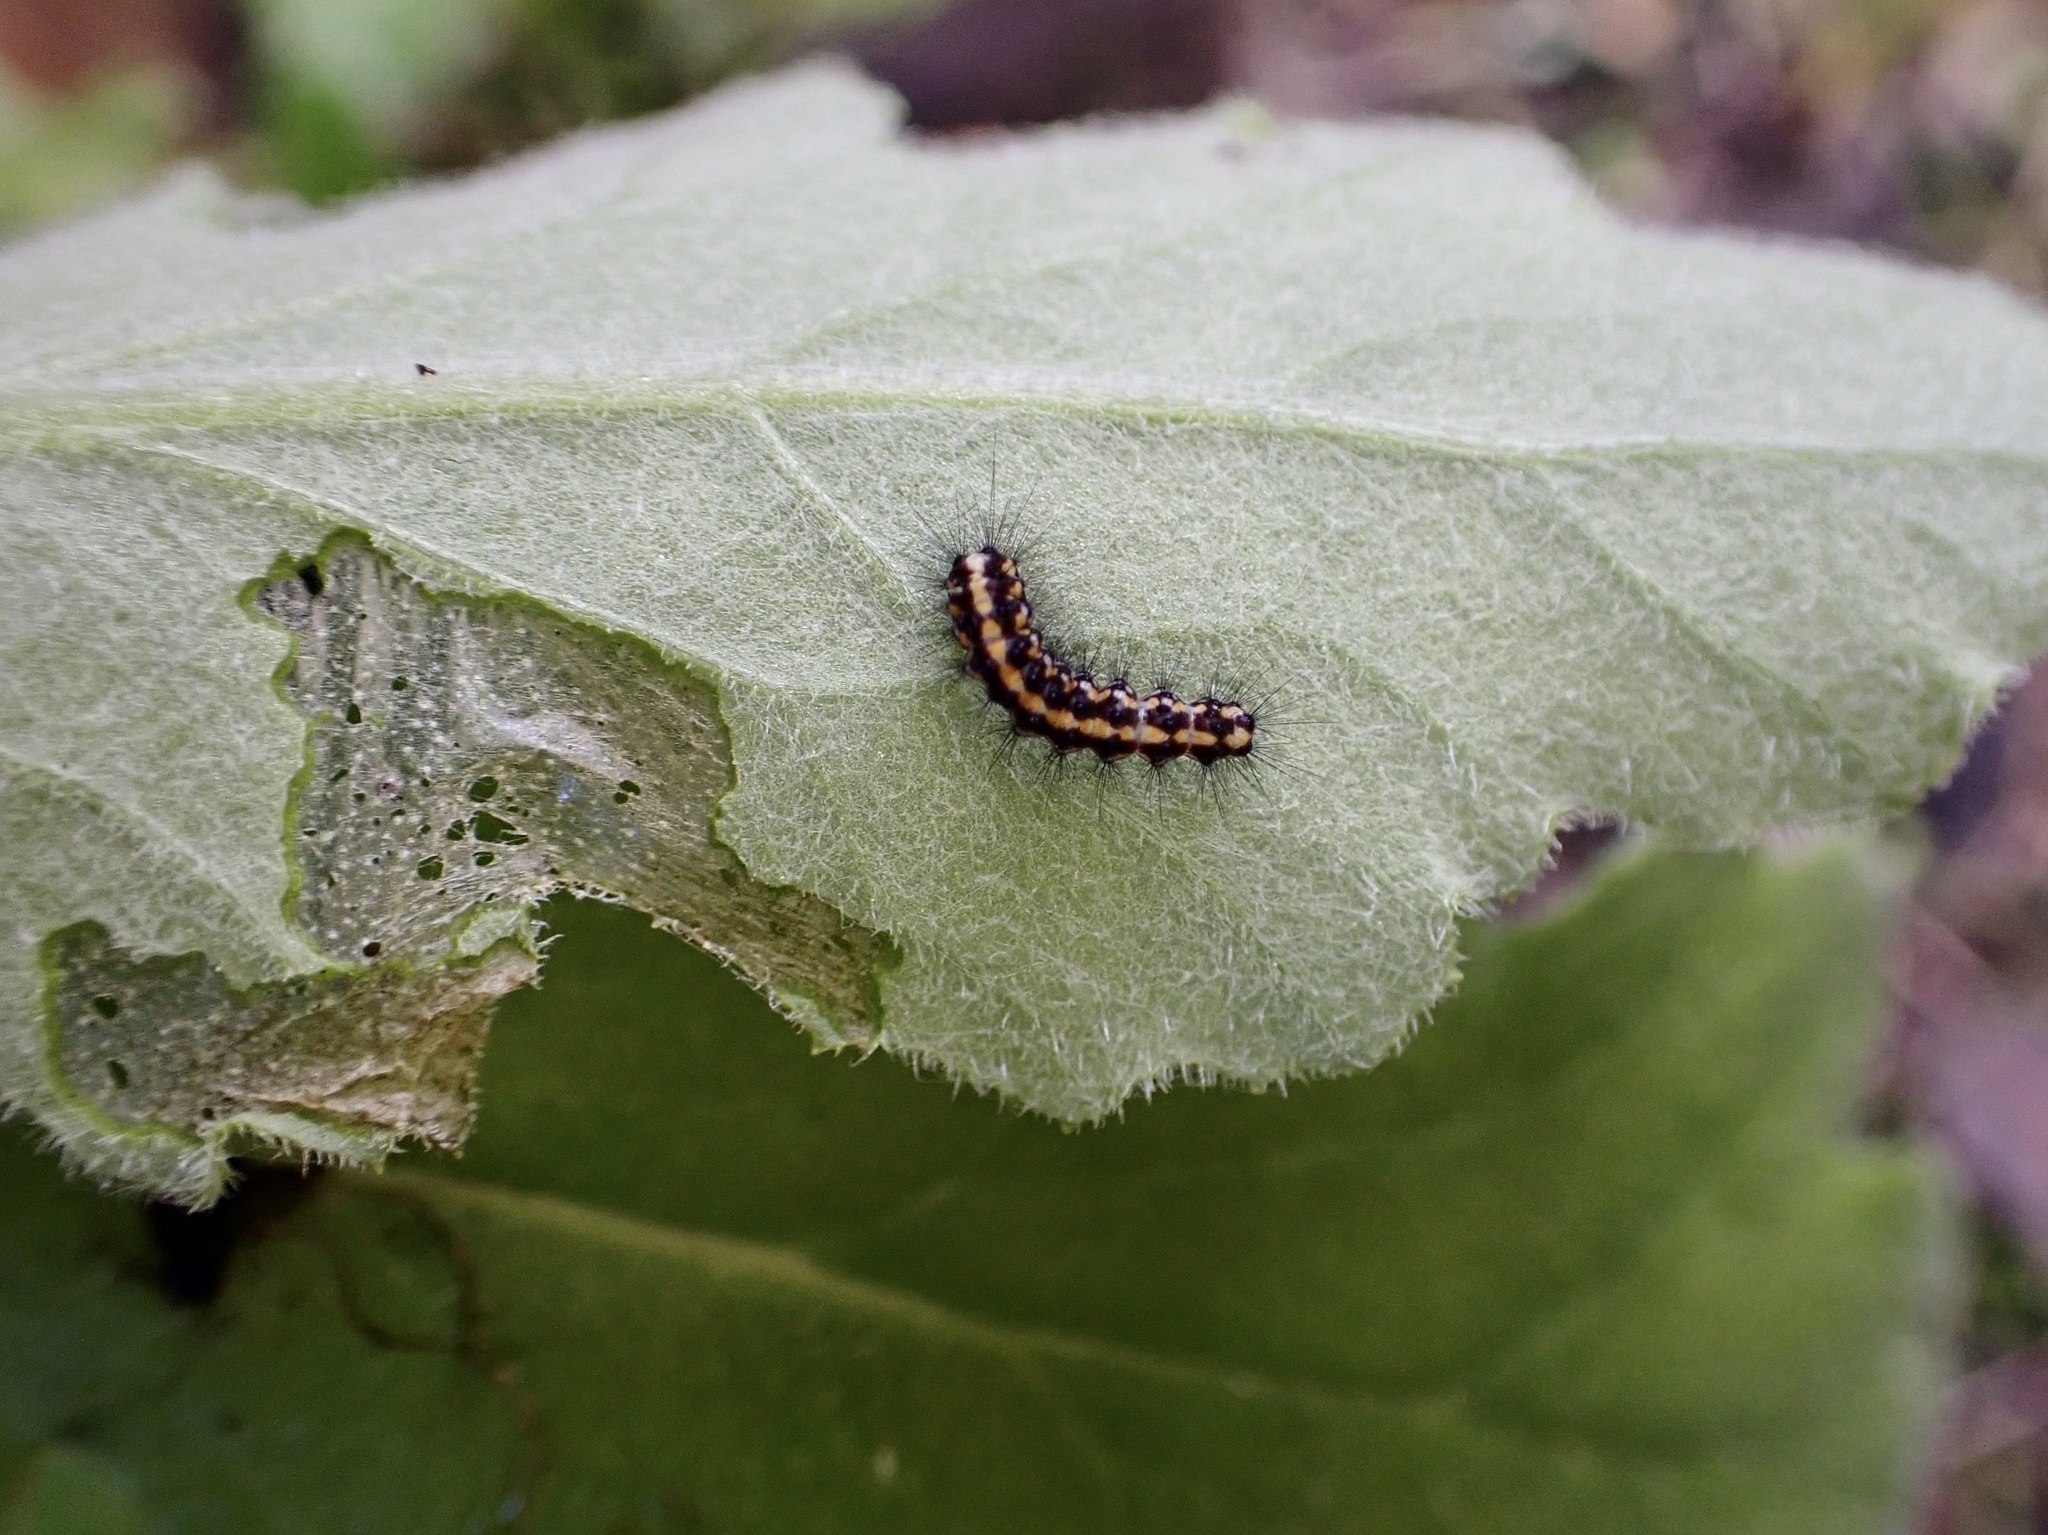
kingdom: Animalia
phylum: Arthropoda
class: Insecta
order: Lepidoptera
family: Erebidae
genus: Nyctemera
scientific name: Nyctemera annulatum
